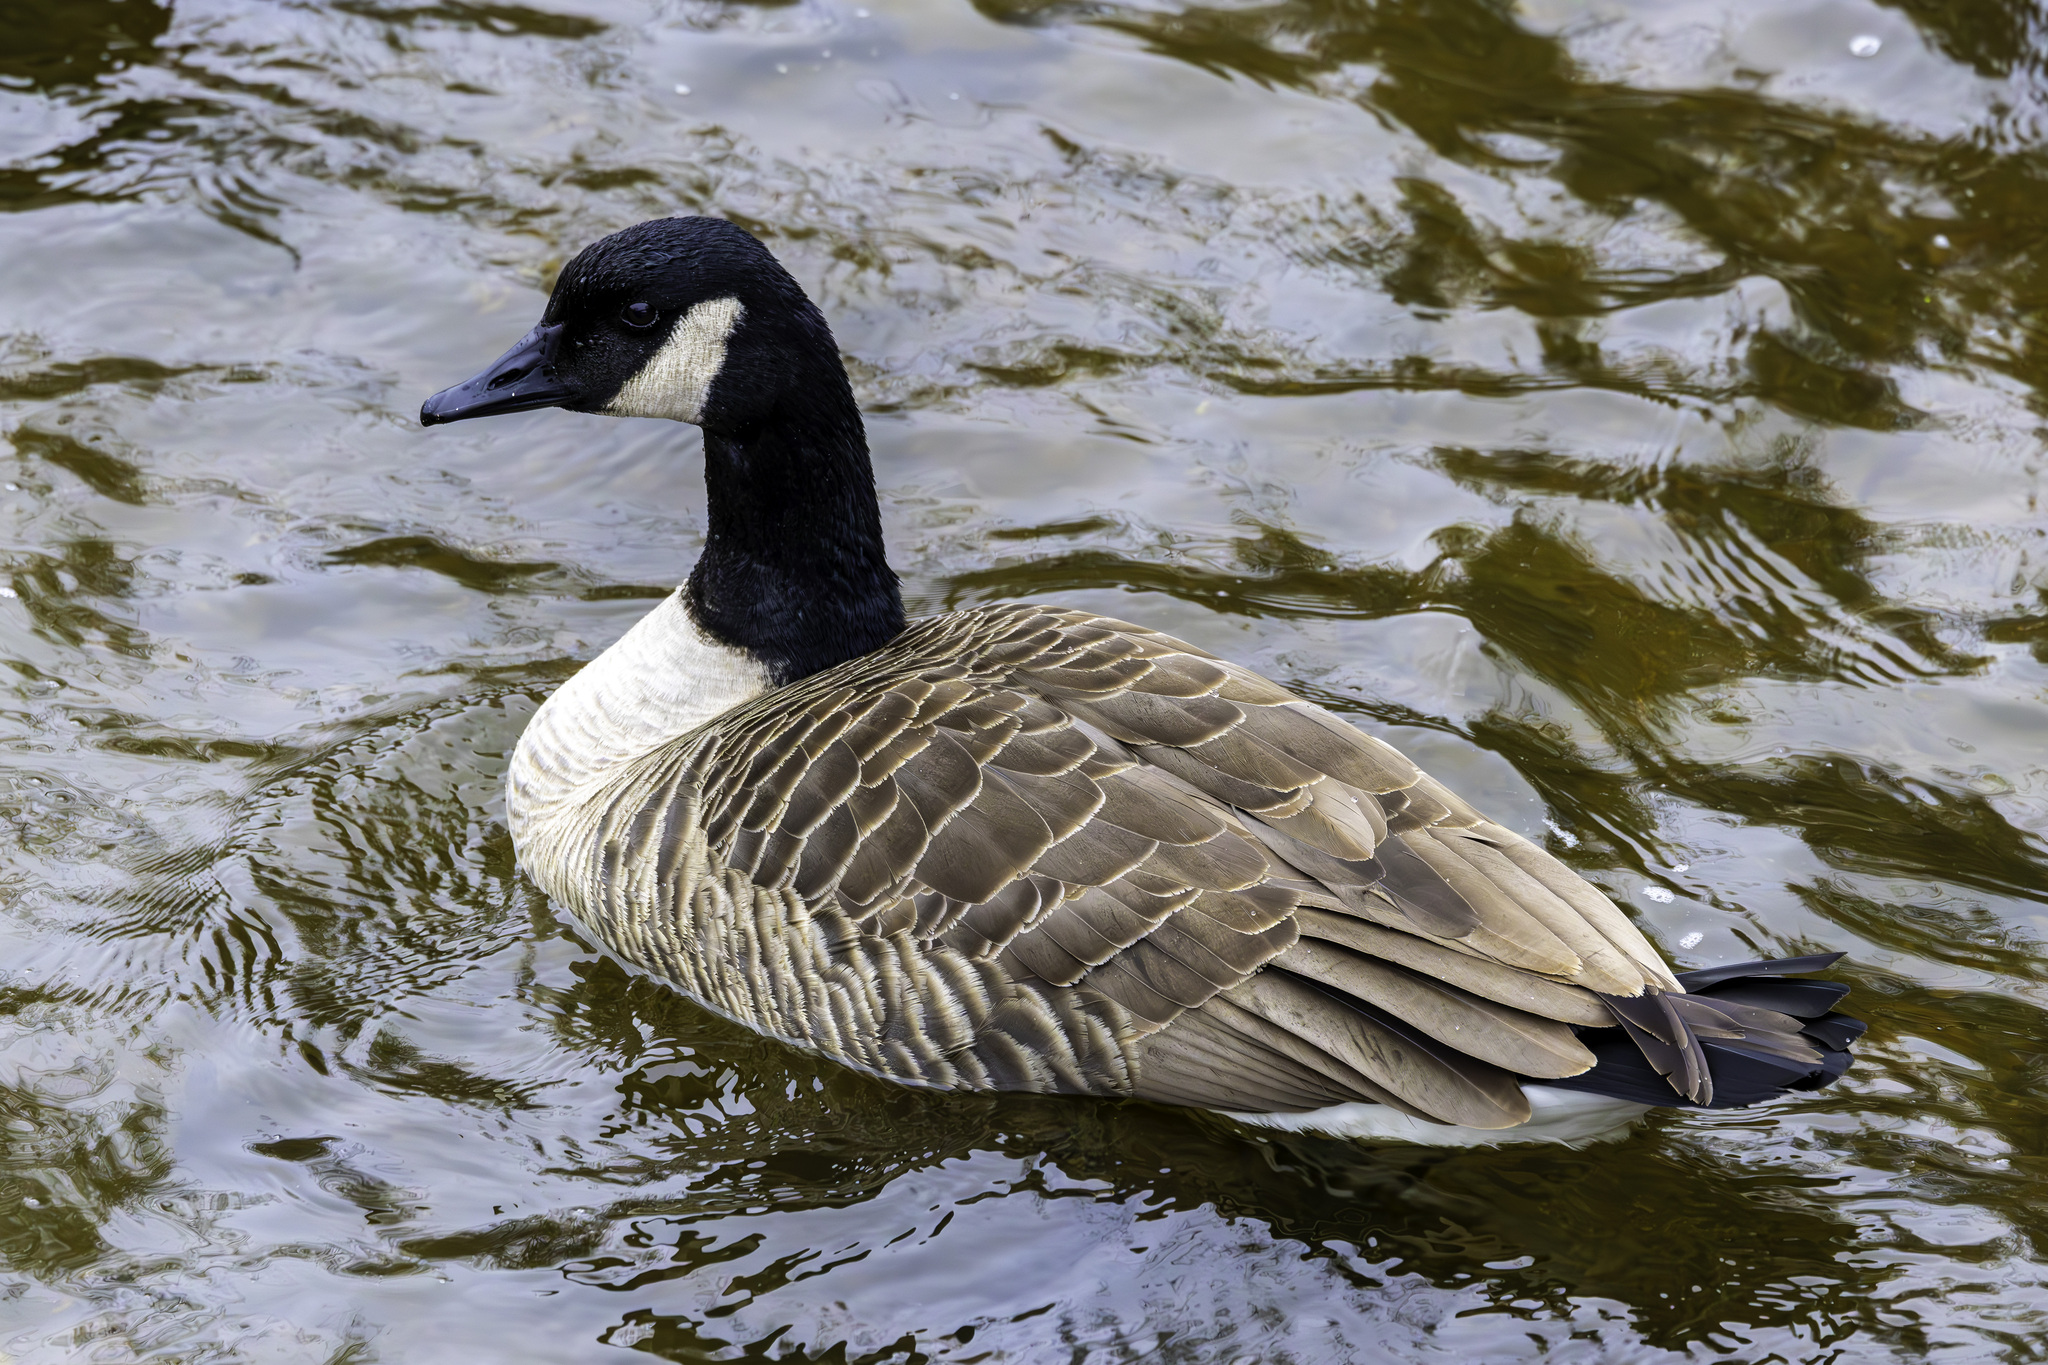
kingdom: Animalia
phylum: Chordata
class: Aves
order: Anseriformes
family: Anatidae
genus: Branta
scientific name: Branta canadensis
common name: Canada goose
